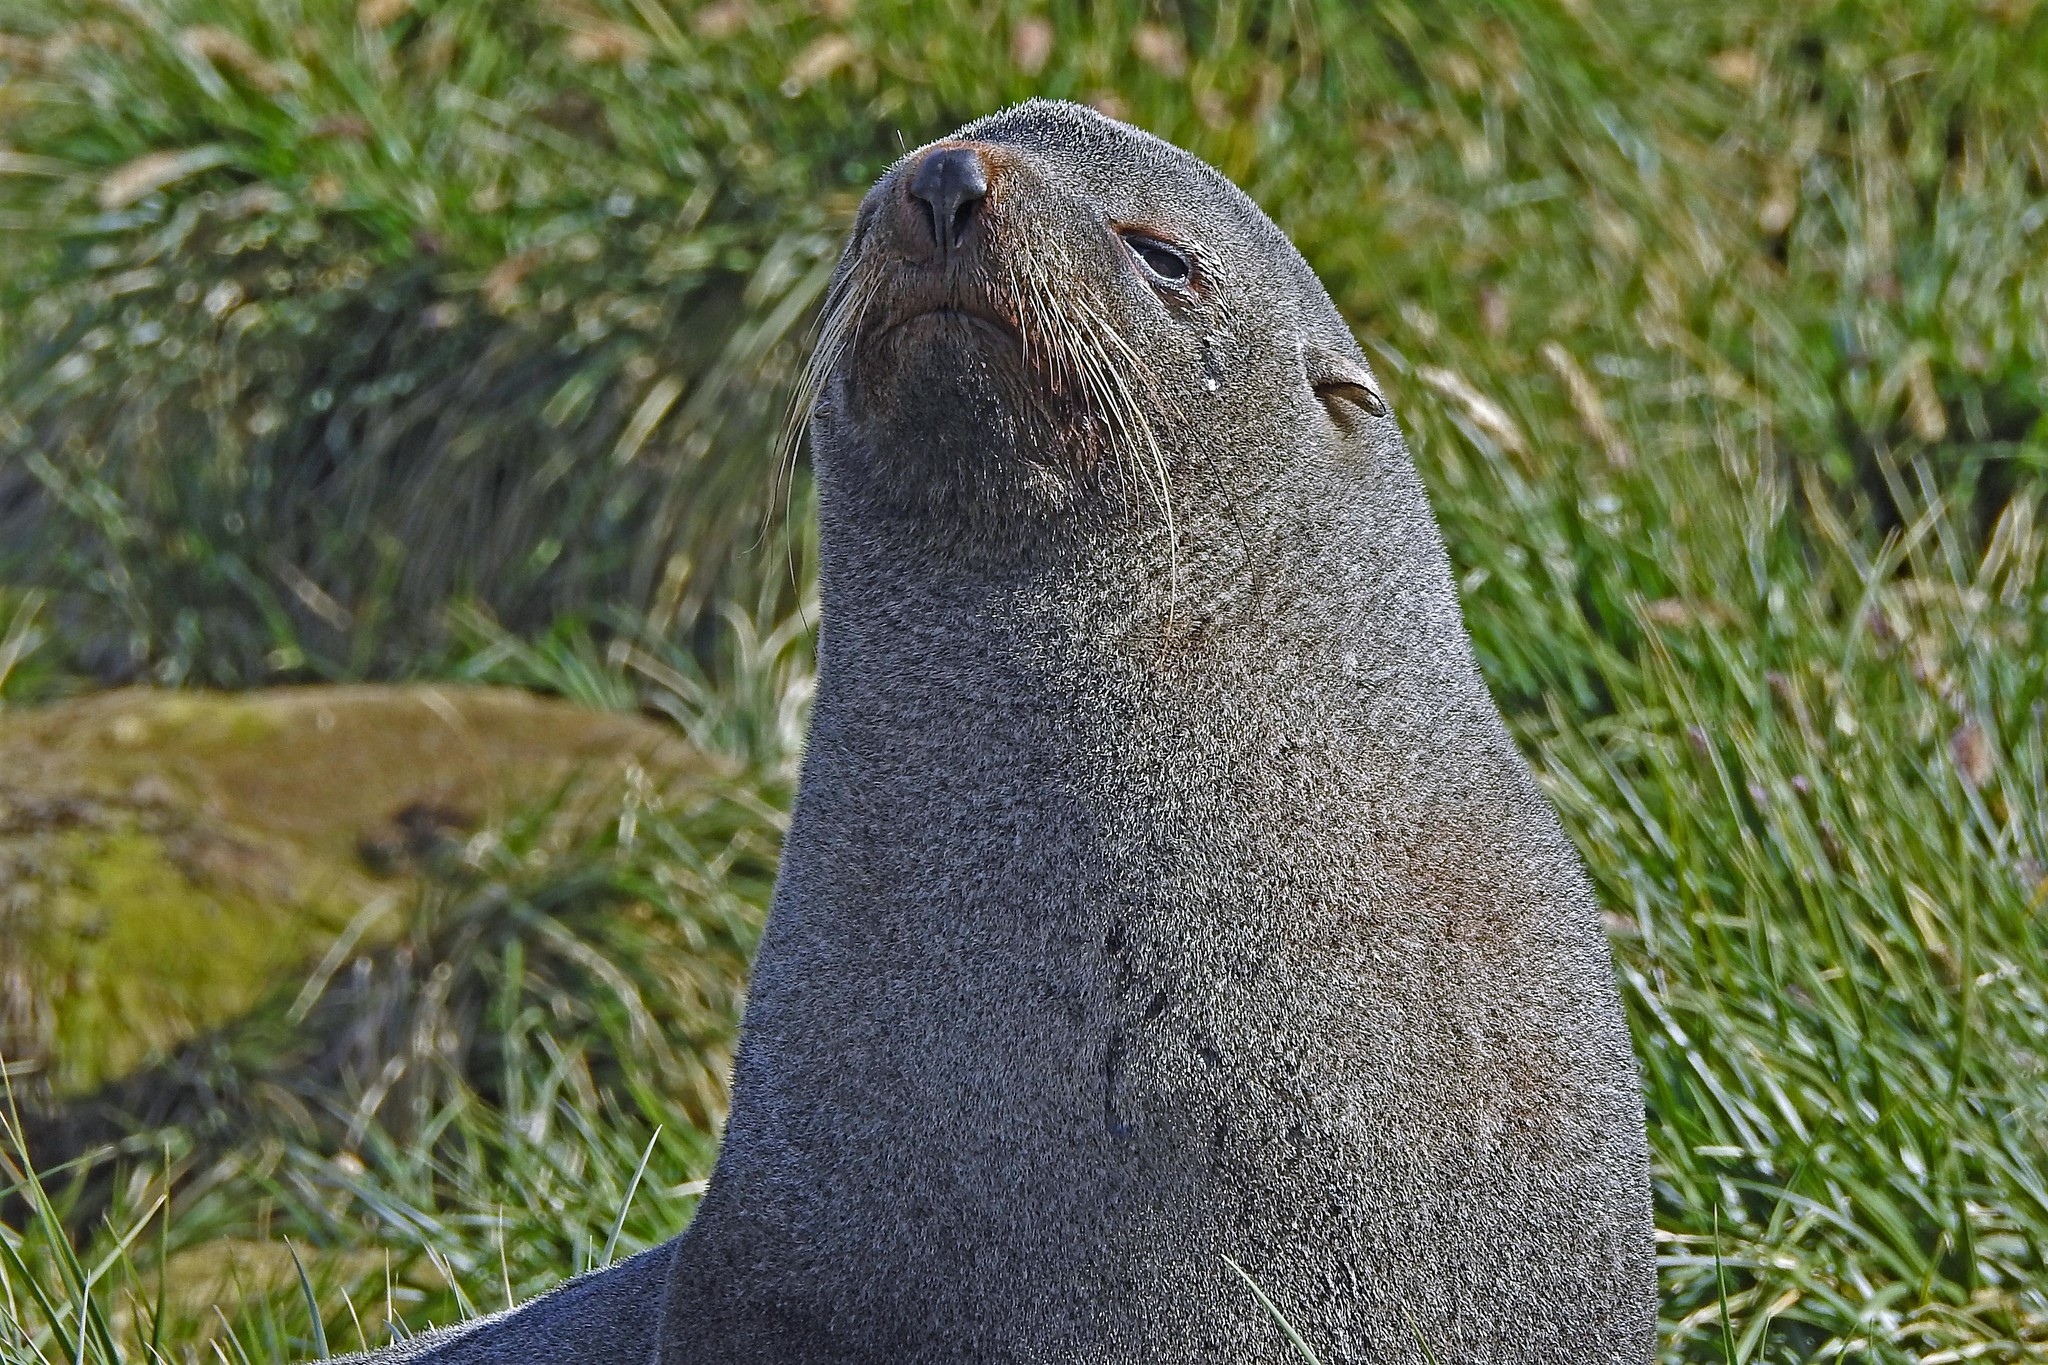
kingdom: Animalia
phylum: Chordata
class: Mammalia
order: Carnivora
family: Otariidae
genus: Arctocephalus
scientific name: Arctocephalus gazella
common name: Antarctic fur seal
